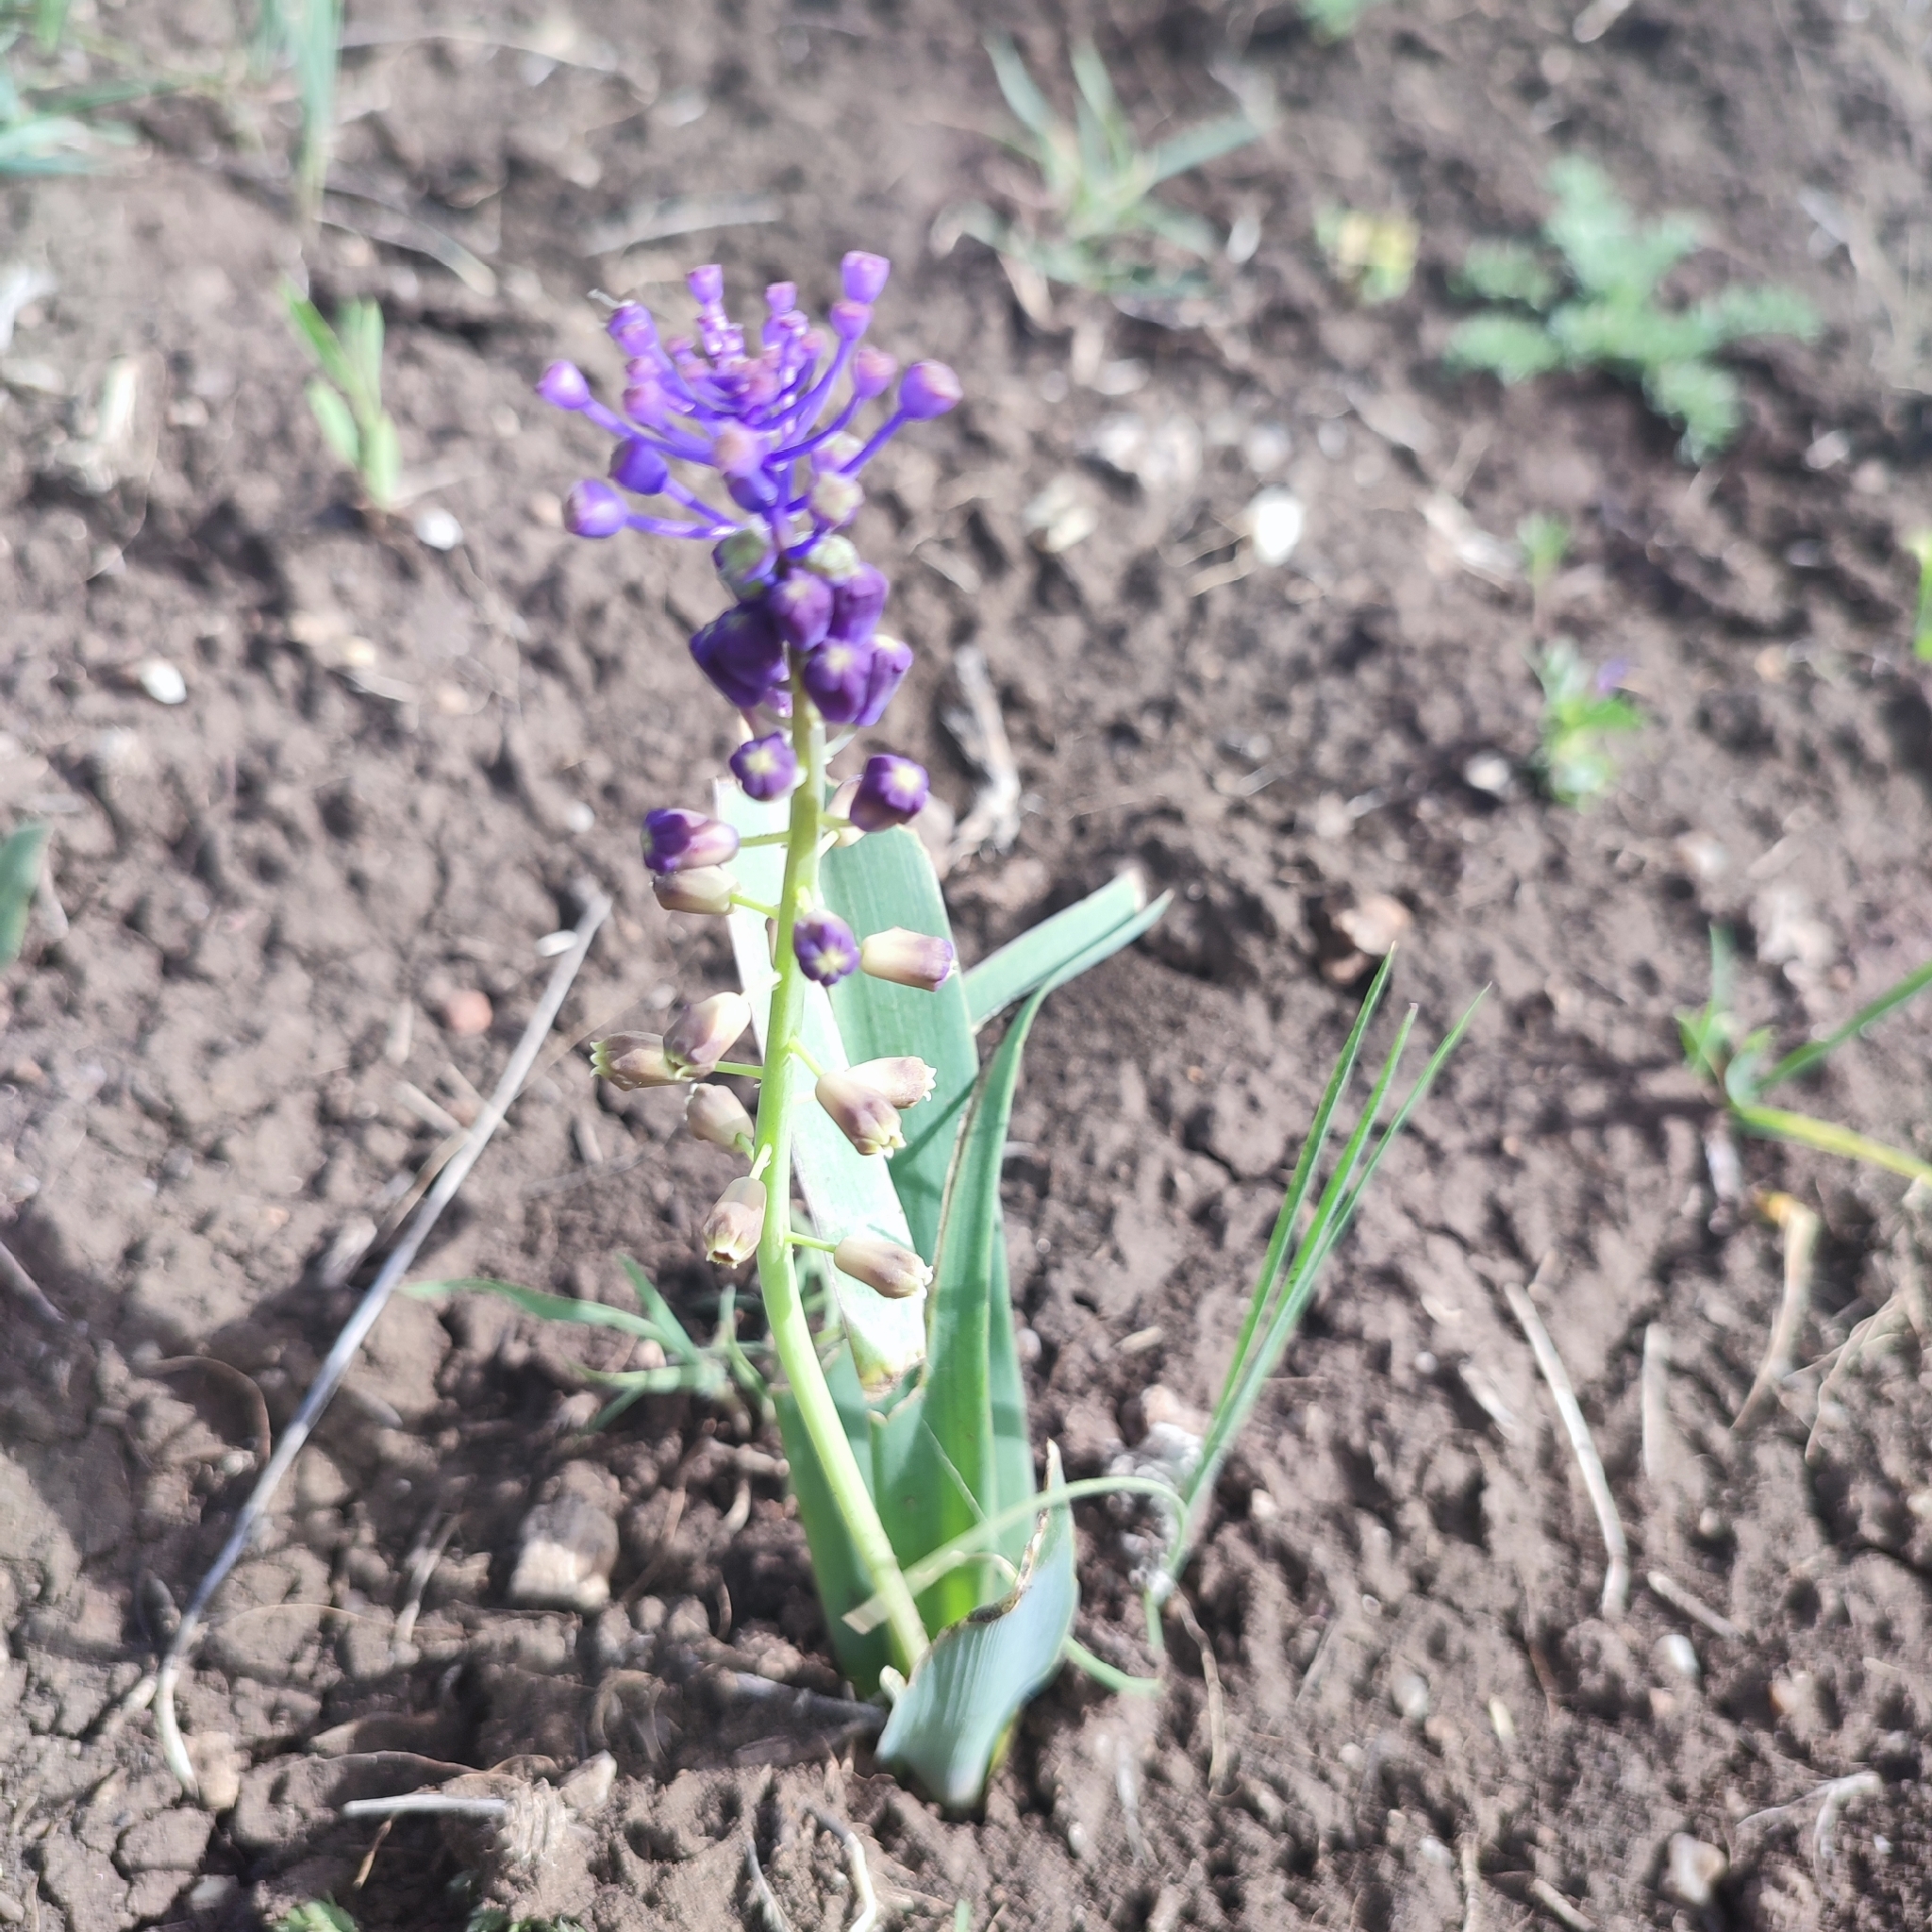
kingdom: Plantae
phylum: Tracheophyta
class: Liliopsida
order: Asparagales
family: Asparagaceae
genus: Muscari
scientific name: Muscari comosum
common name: Tassel hyacinth
